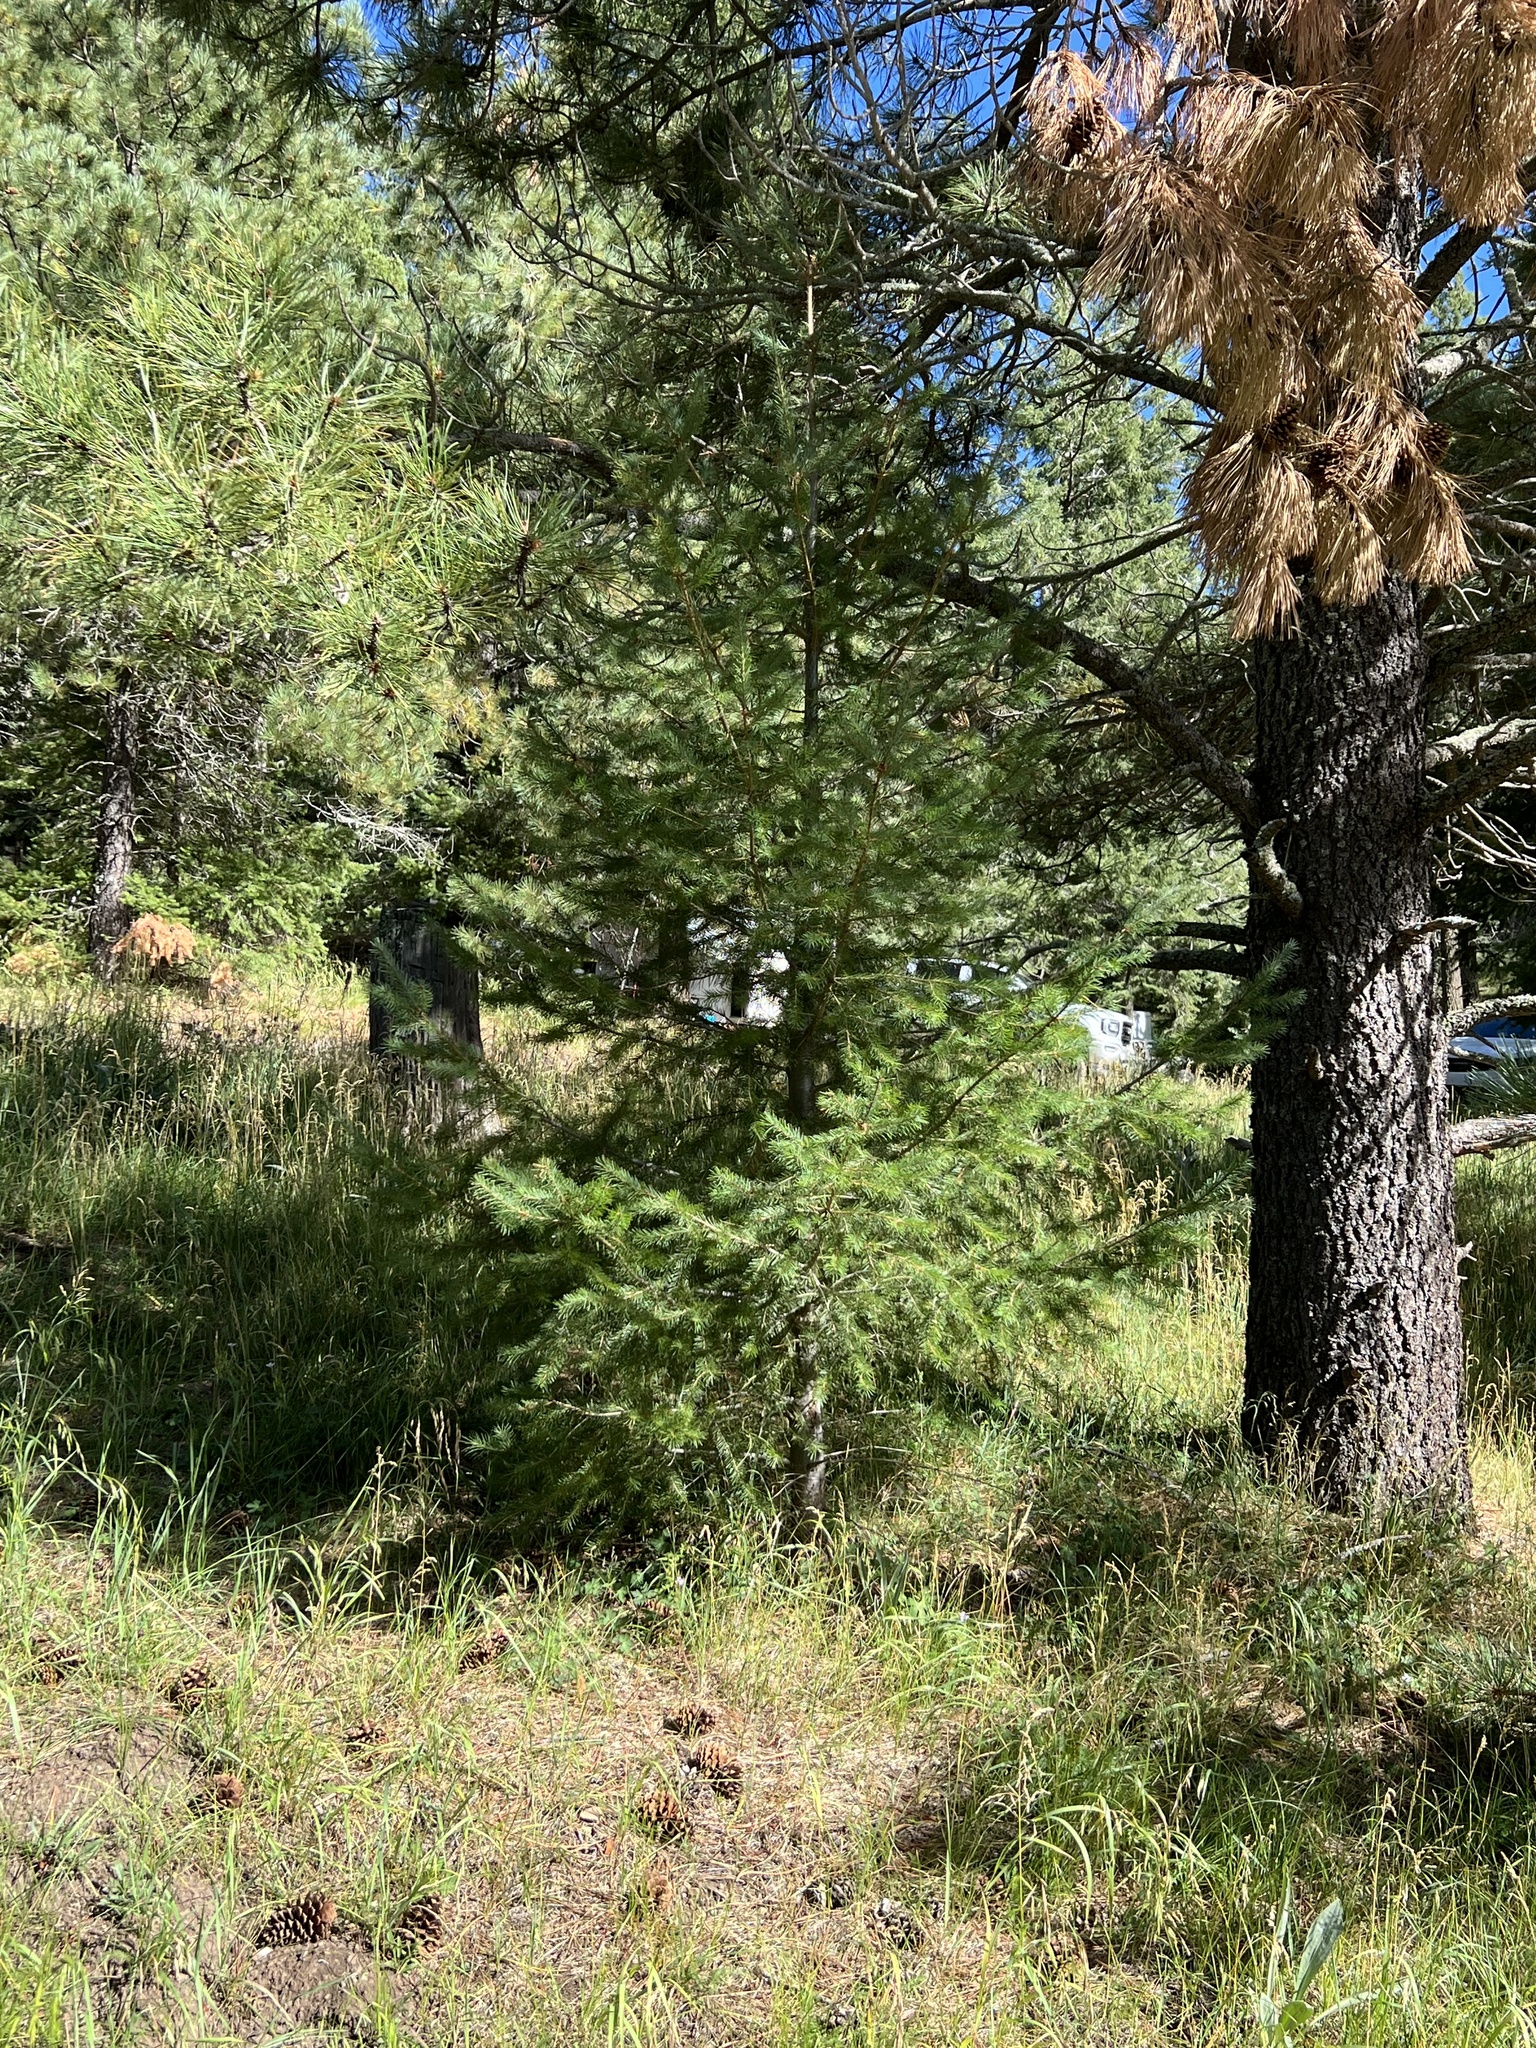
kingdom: Plantae
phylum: Tracheophyta
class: Pinopsida
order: Pinales
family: Pinaceae
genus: Pseudotsuga
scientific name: Pseudotsuga menziesii
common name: Douglas fir
